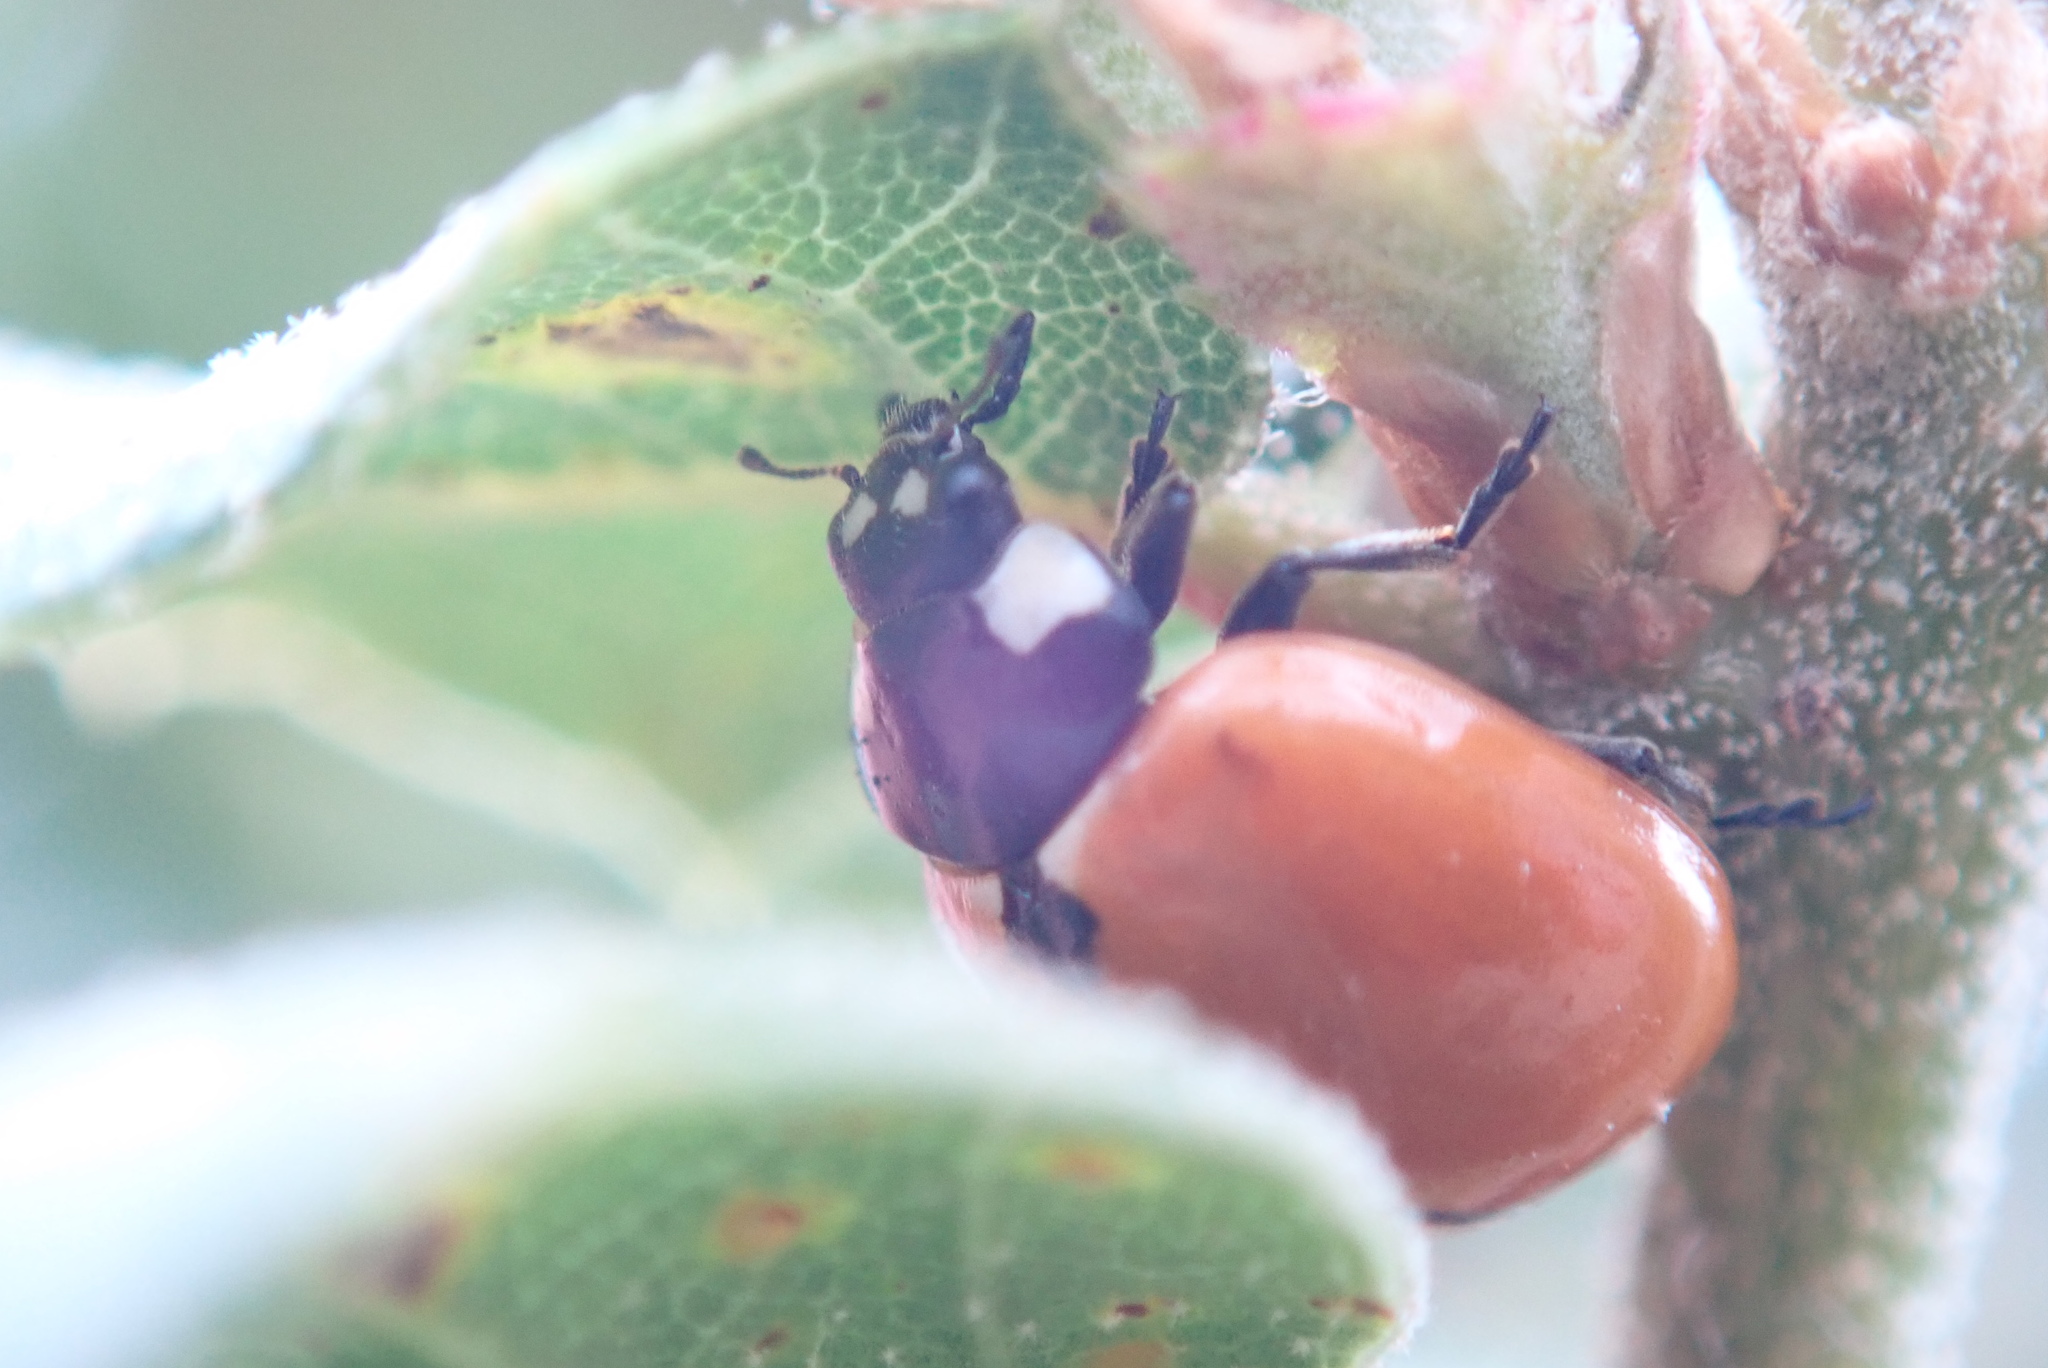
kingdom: Animalia
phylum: Arthropoda
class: Insecta
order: Coleoptera
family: Coccinellidae
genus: Coccinella
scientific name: Coccinella californica
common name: Lady beetle
